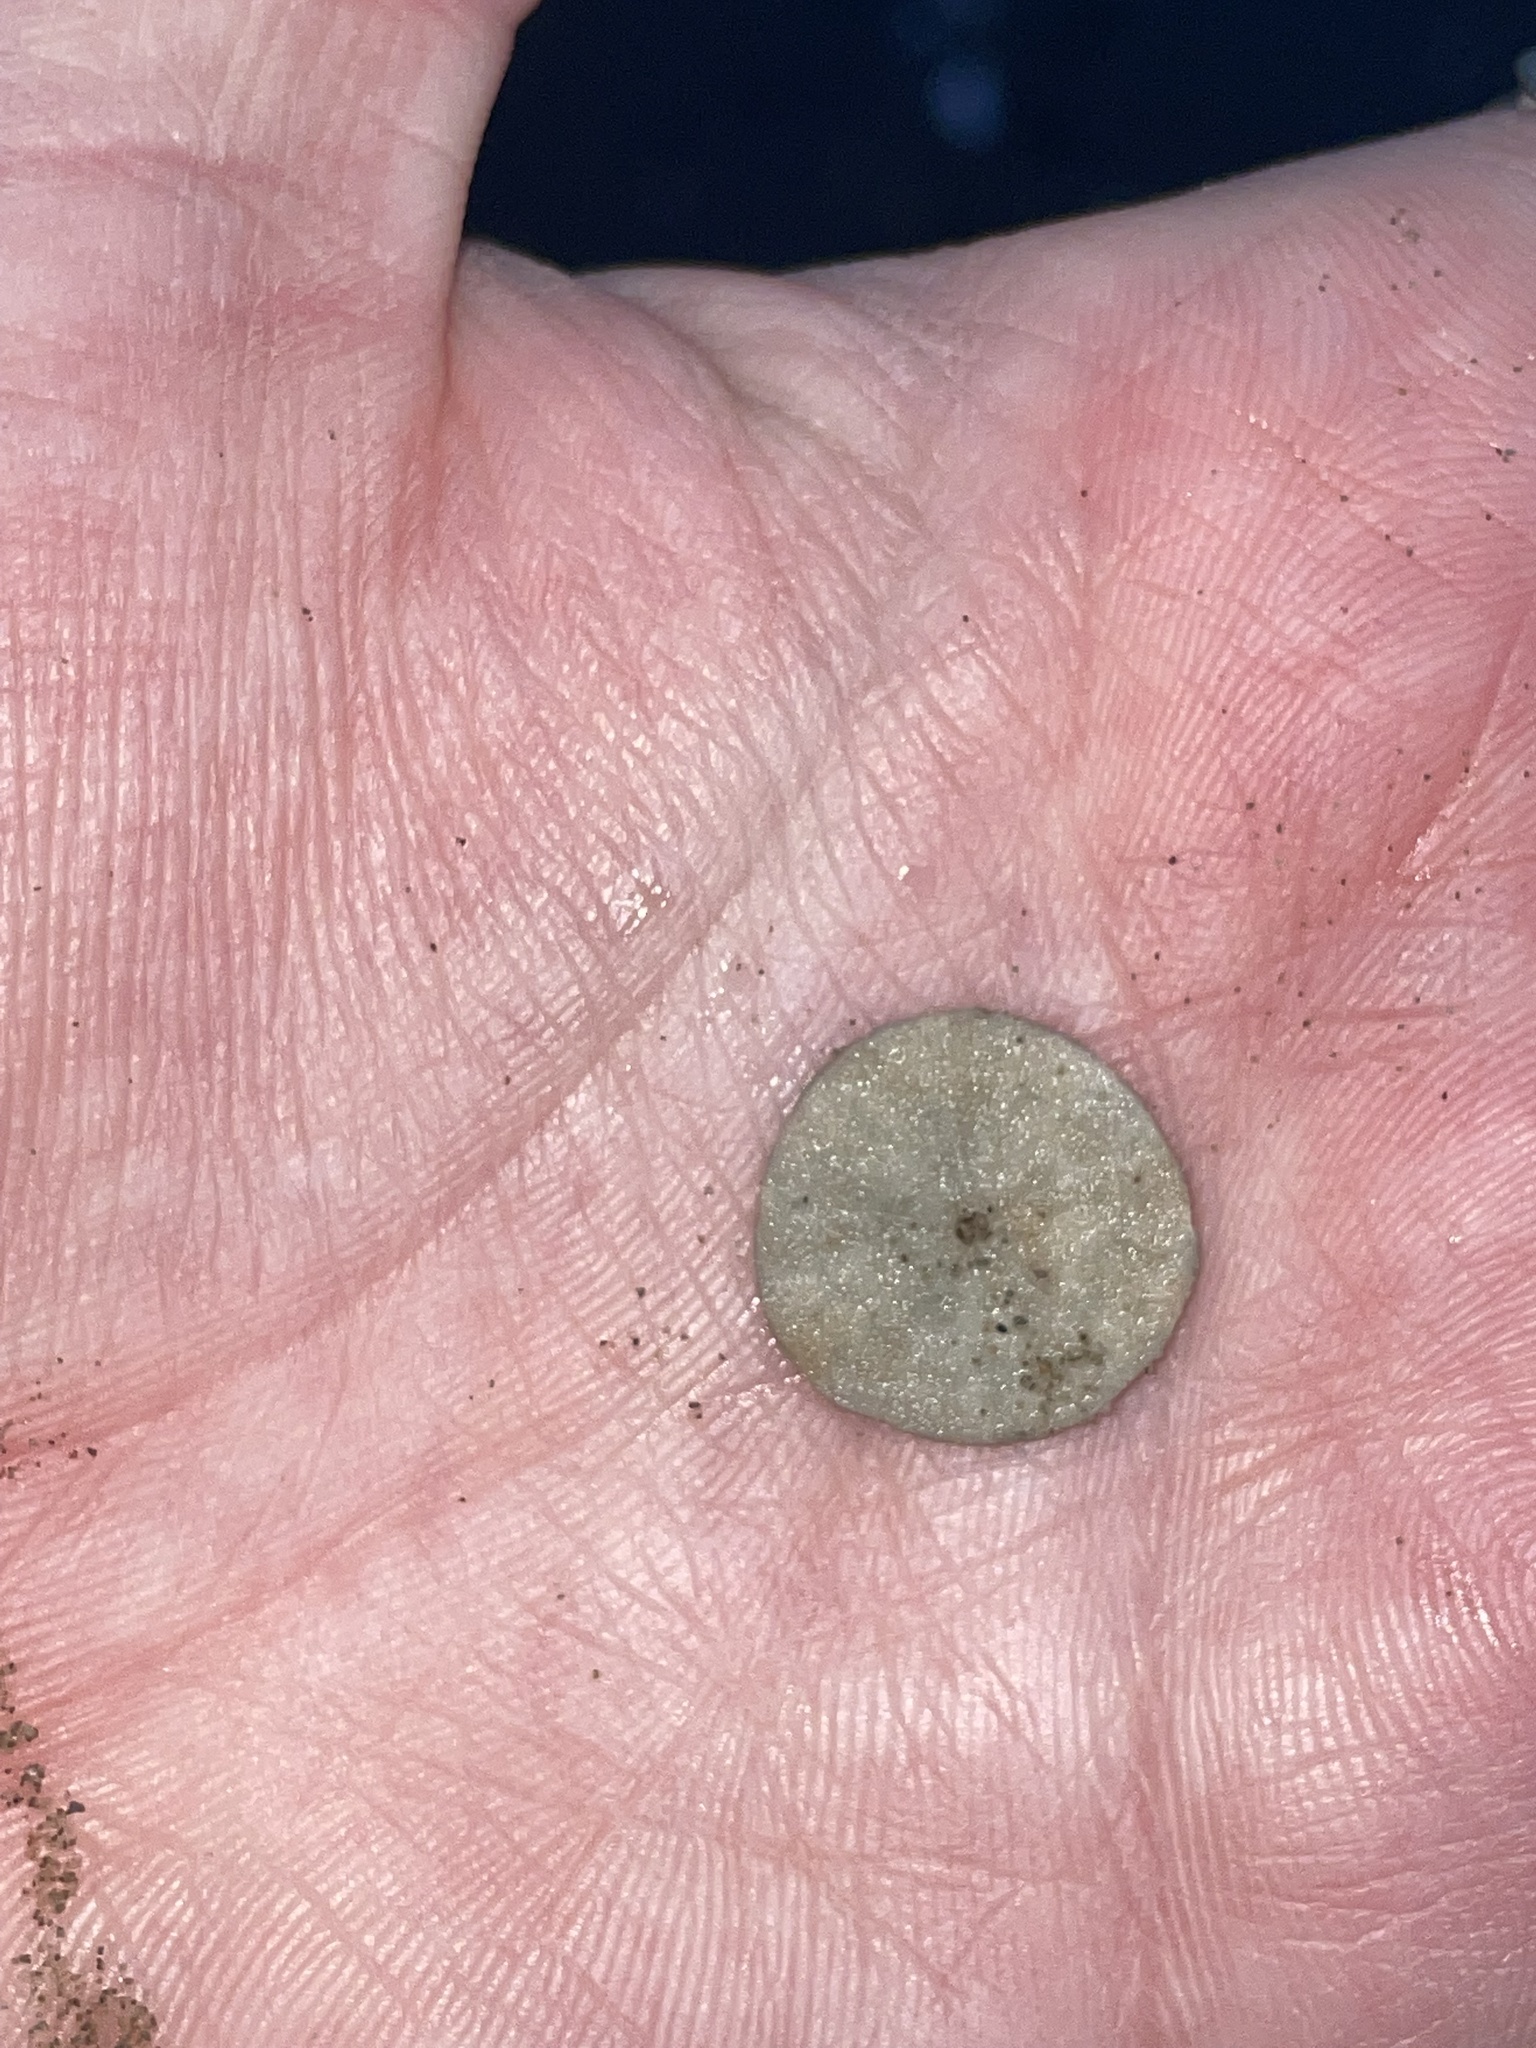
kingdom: Animalia
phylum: Echinodermata
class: Echinoidea
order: Echinolampadacea
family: Echinarachniidae
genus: Echinarachnius
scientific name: Echinarachnius parma
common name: Common sand dollar
